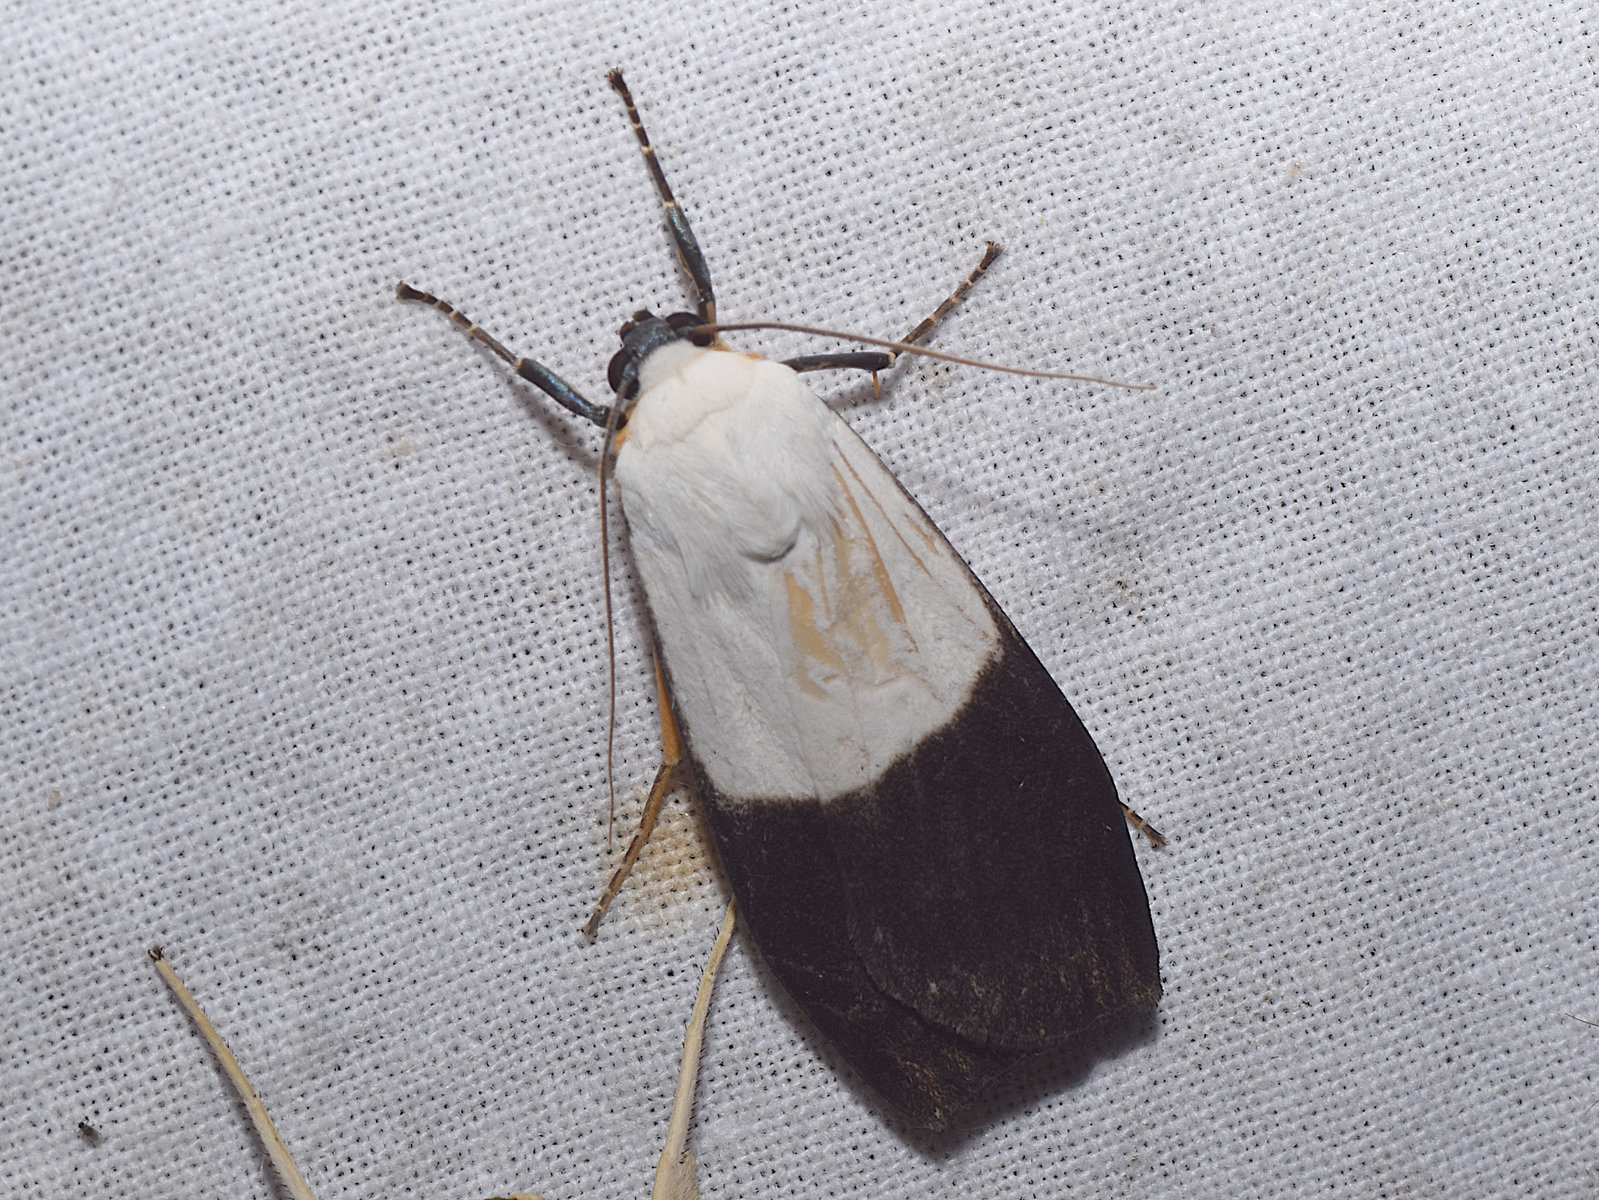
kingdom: Animalia
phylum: Arthropoda
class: Insecta
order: Lepidoptera
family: Erebidae
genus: Vamuna
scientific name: Vamuna bipars
